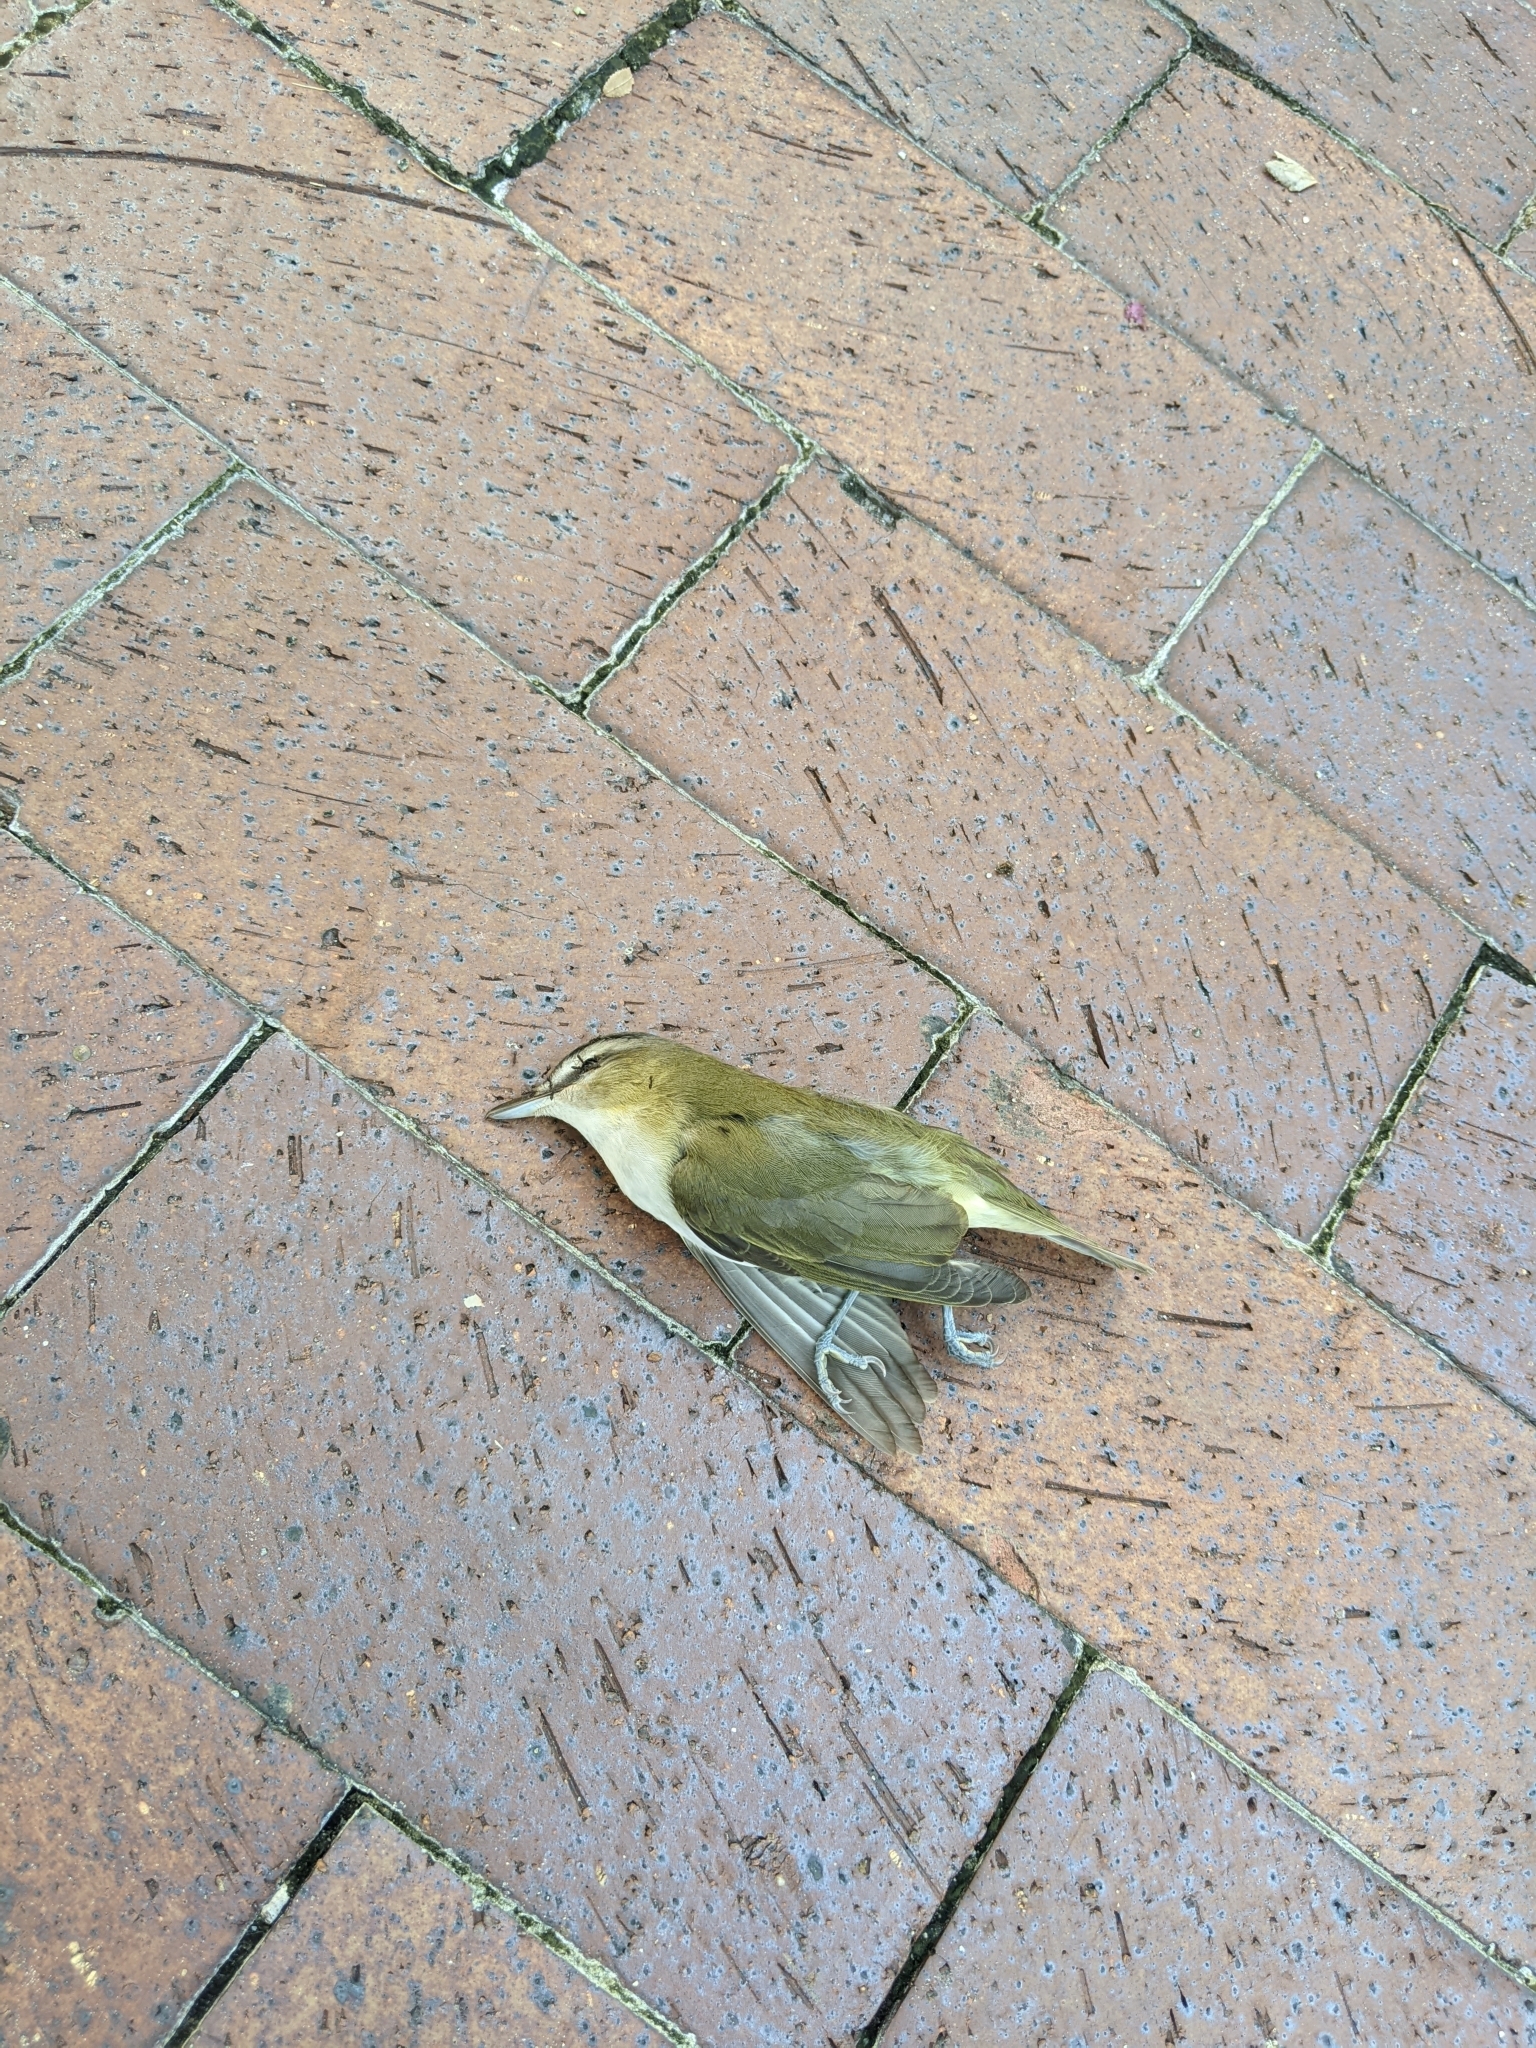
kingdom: Animalia
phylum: Chordata
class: Aves
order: Passeriformes
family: Vireonidae
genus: Vireo
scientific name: Vireo olivaceus
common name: Red-eyed vireo
